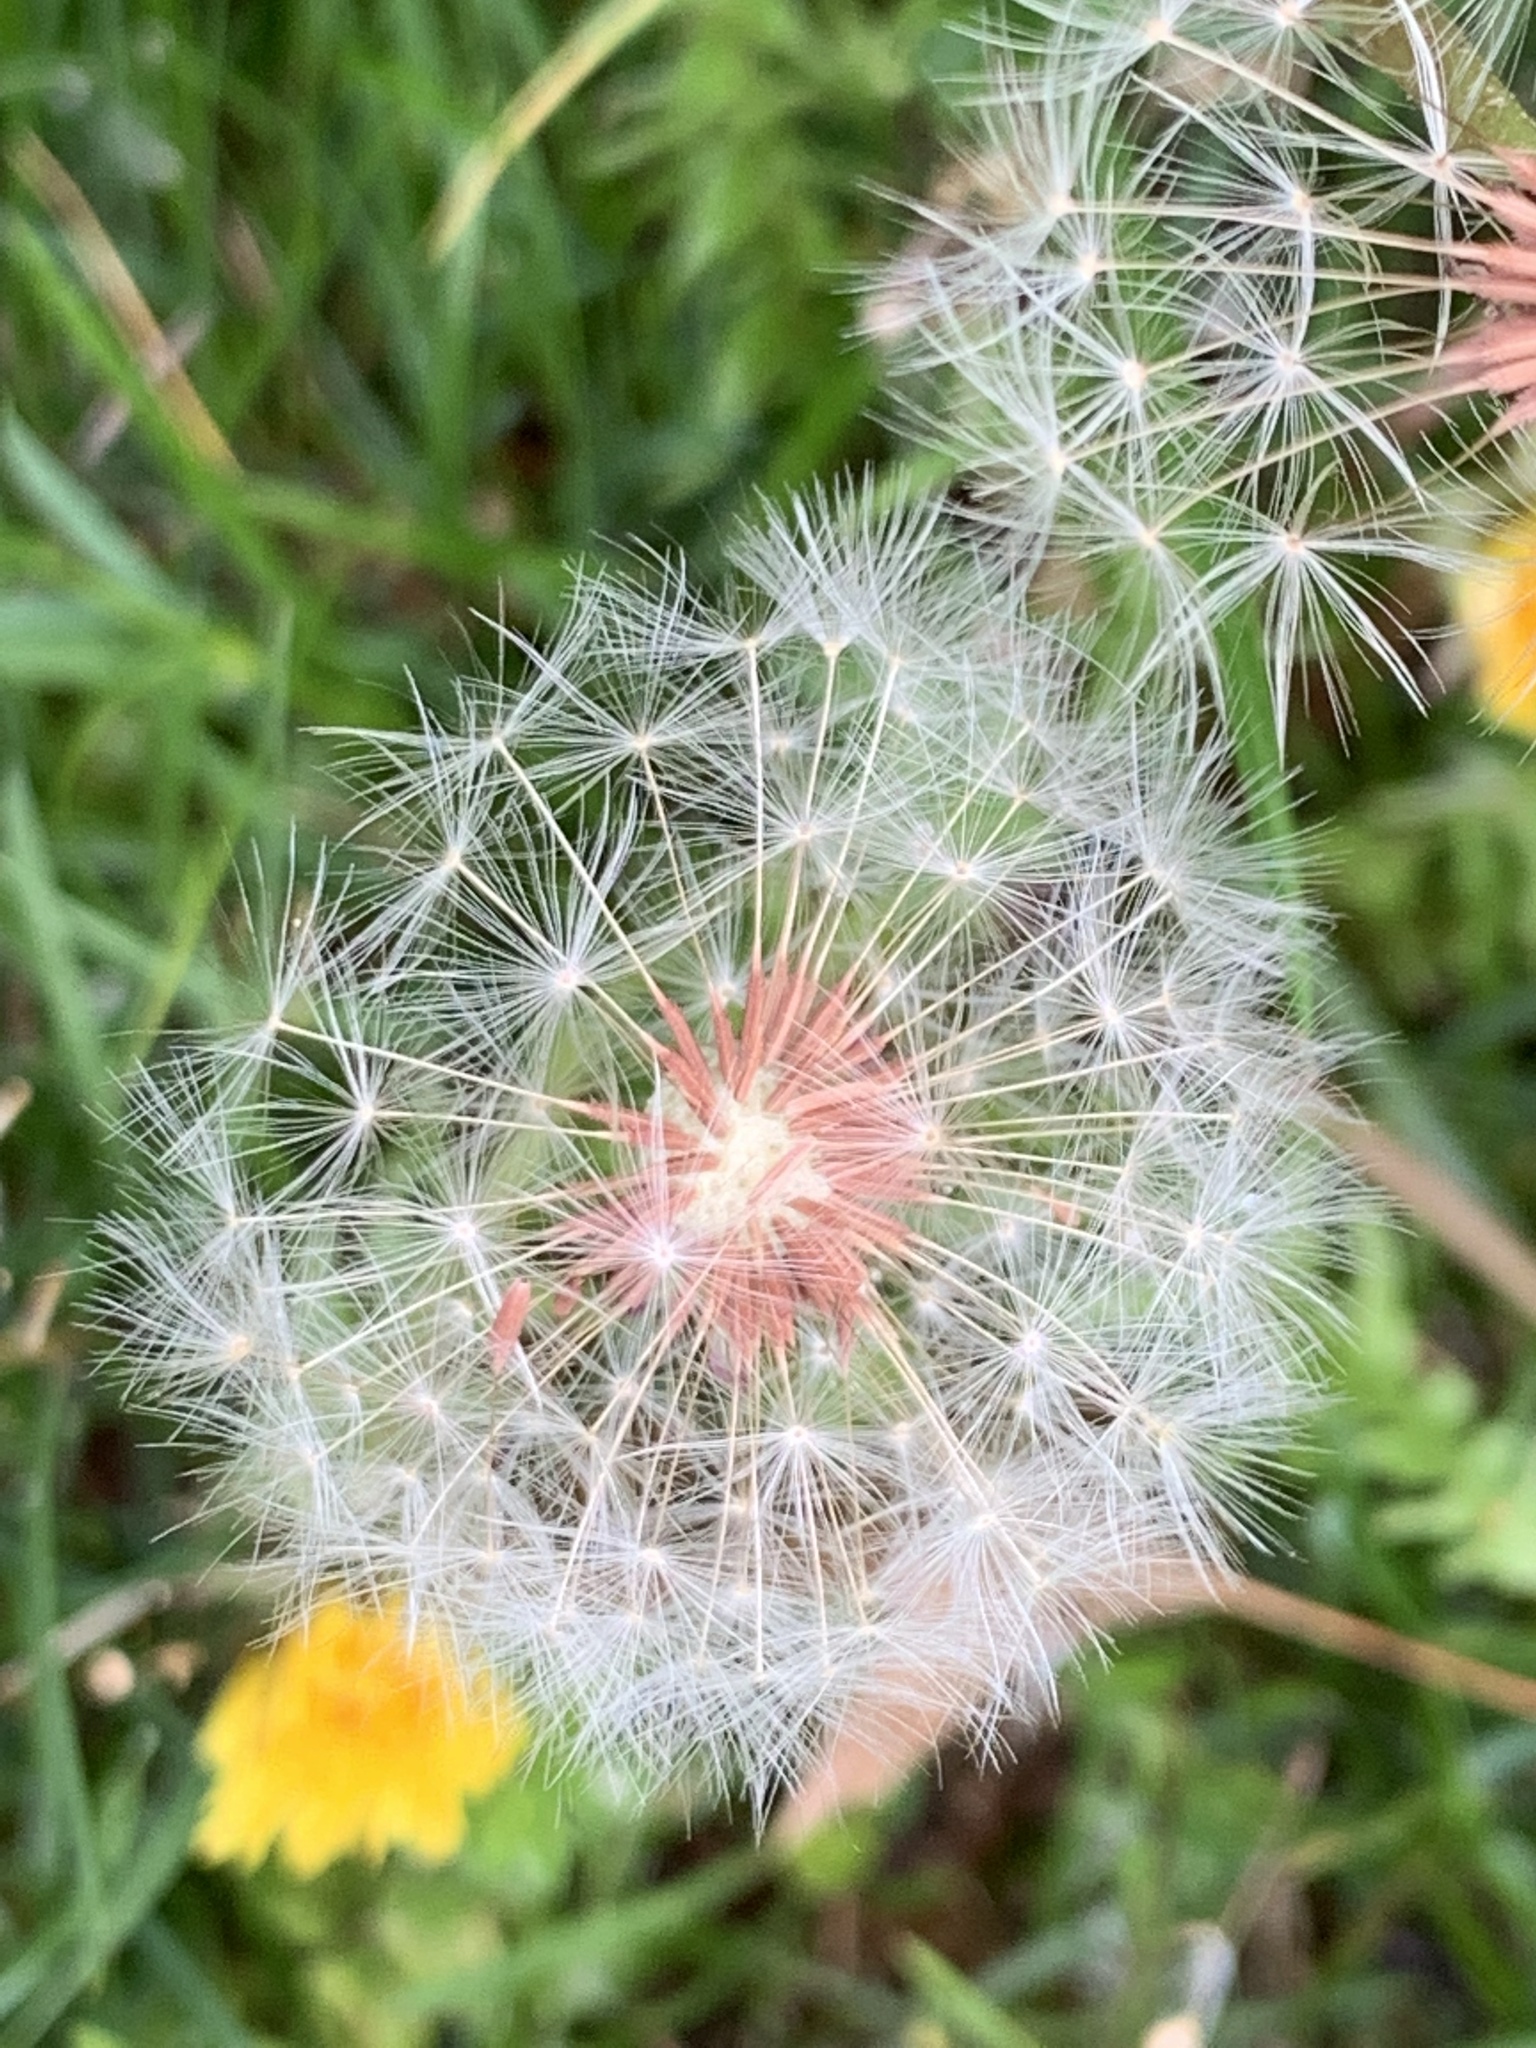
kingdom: Plantae
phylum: Tracheophyta
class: Magnoliopsida
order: Asterales
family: Asteraceae
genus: Taraxacum
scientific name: Taraxacum erythrospermum
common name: Rock dandelion
